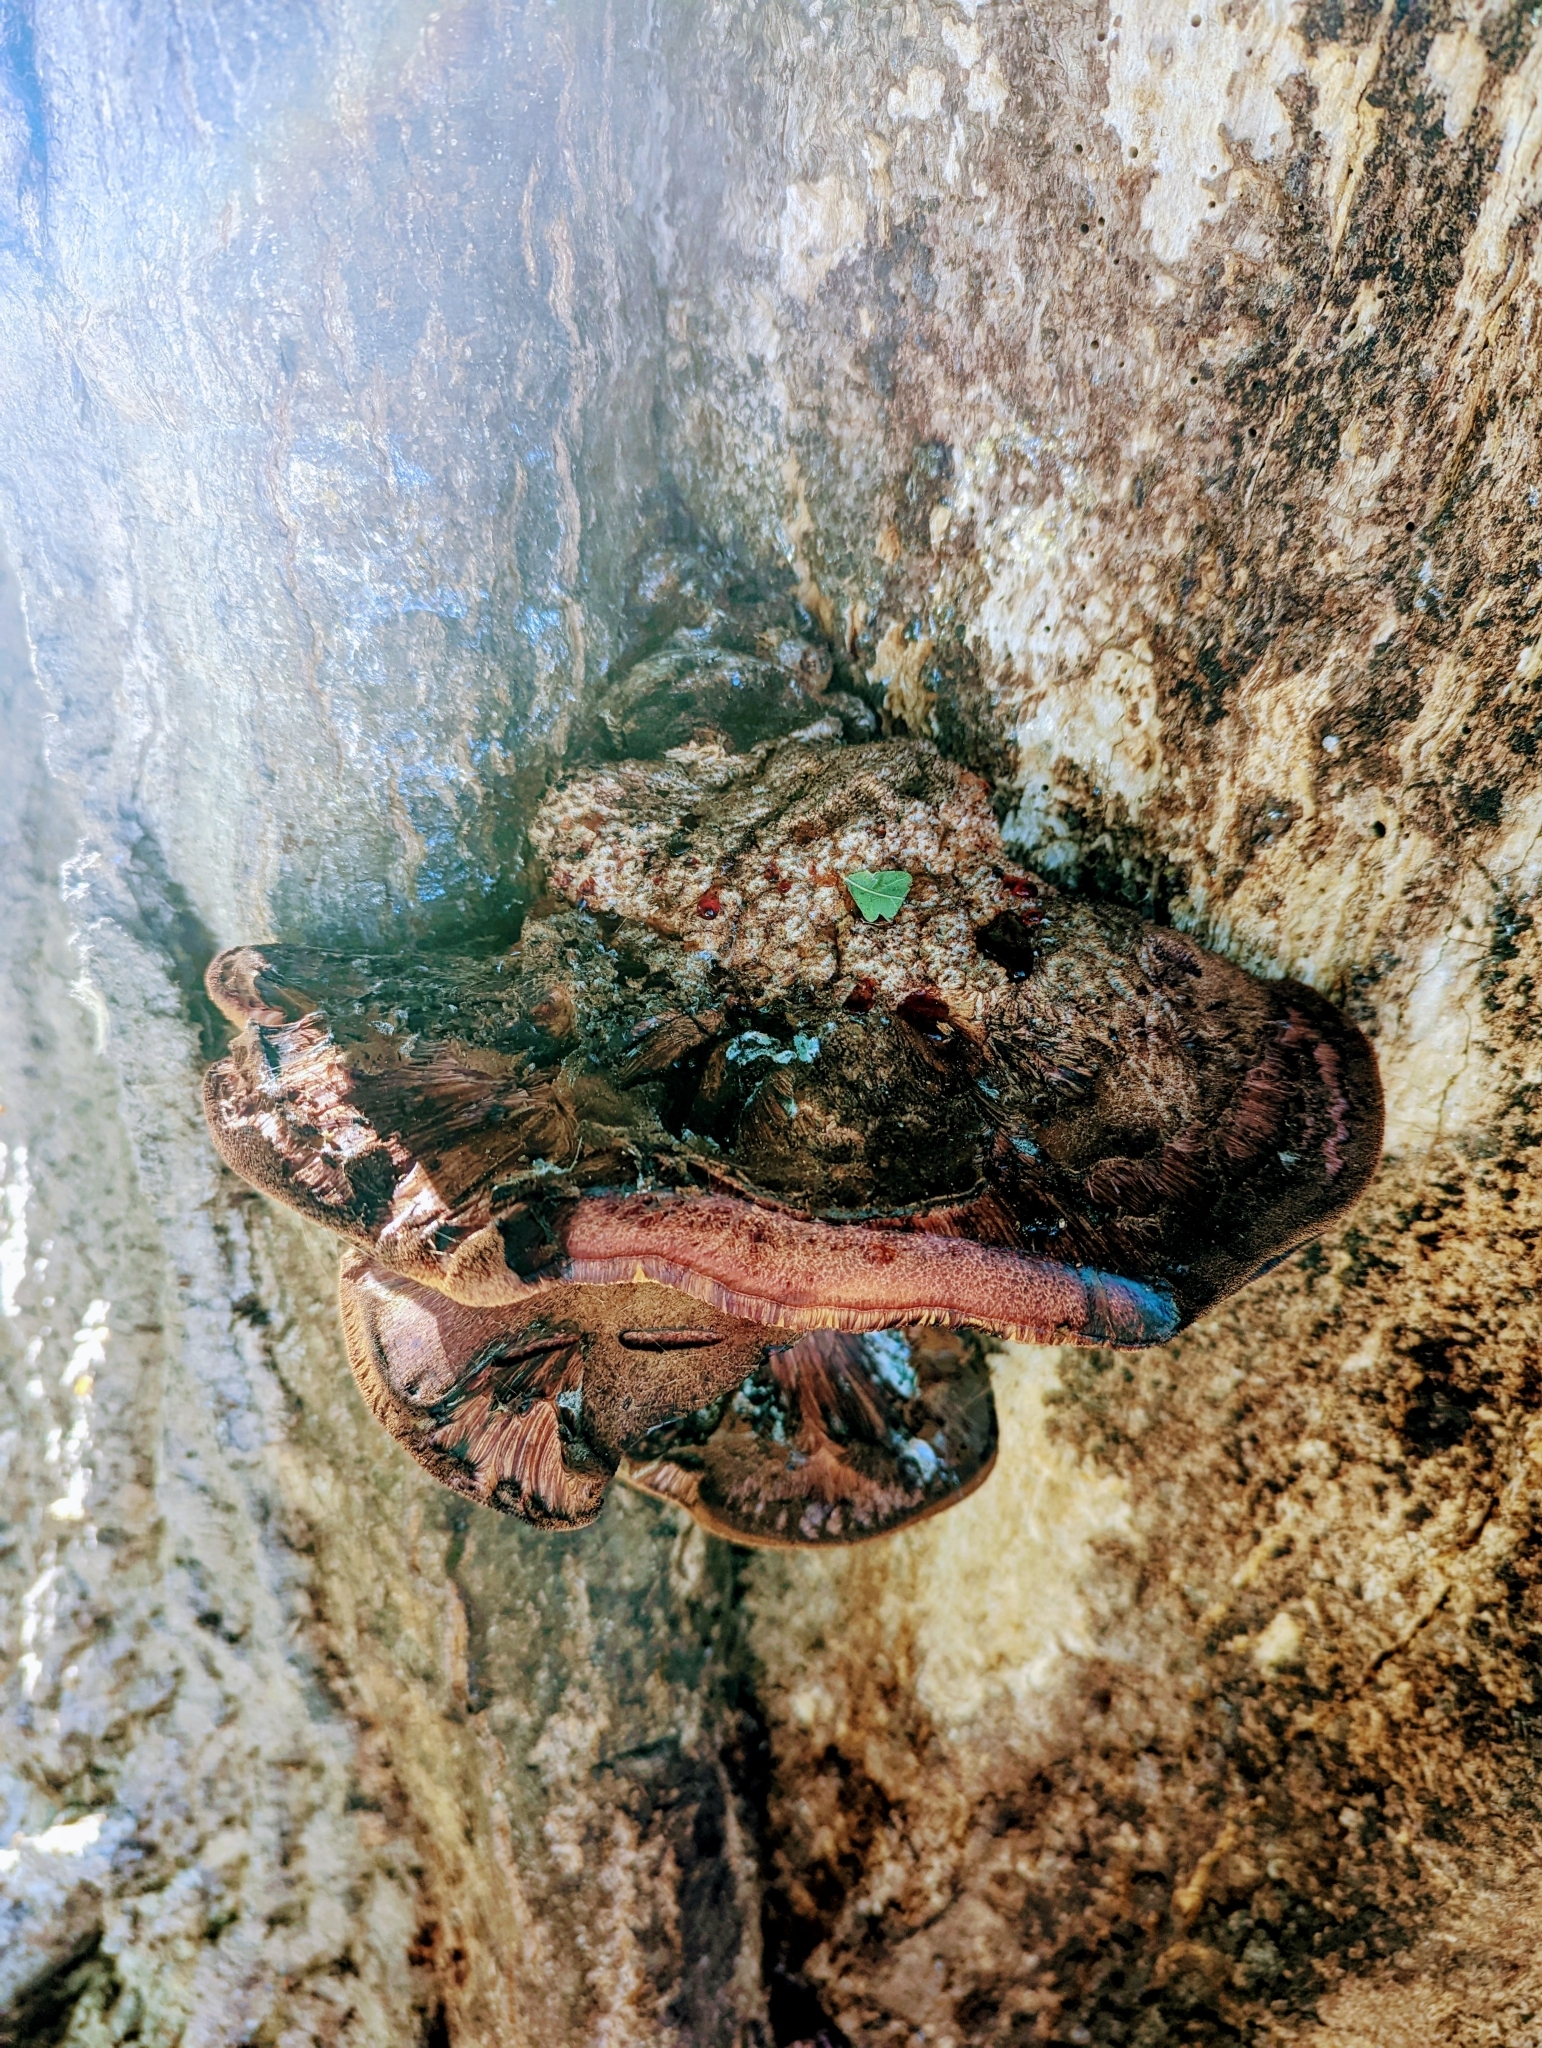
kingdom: Fungi
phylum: Basidiomycota
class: Agaricomycetes
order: Agaricales
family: Fistulinaceae
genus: Fistulina
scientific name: Fistulina hepatica
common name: Beef-steak fungus
